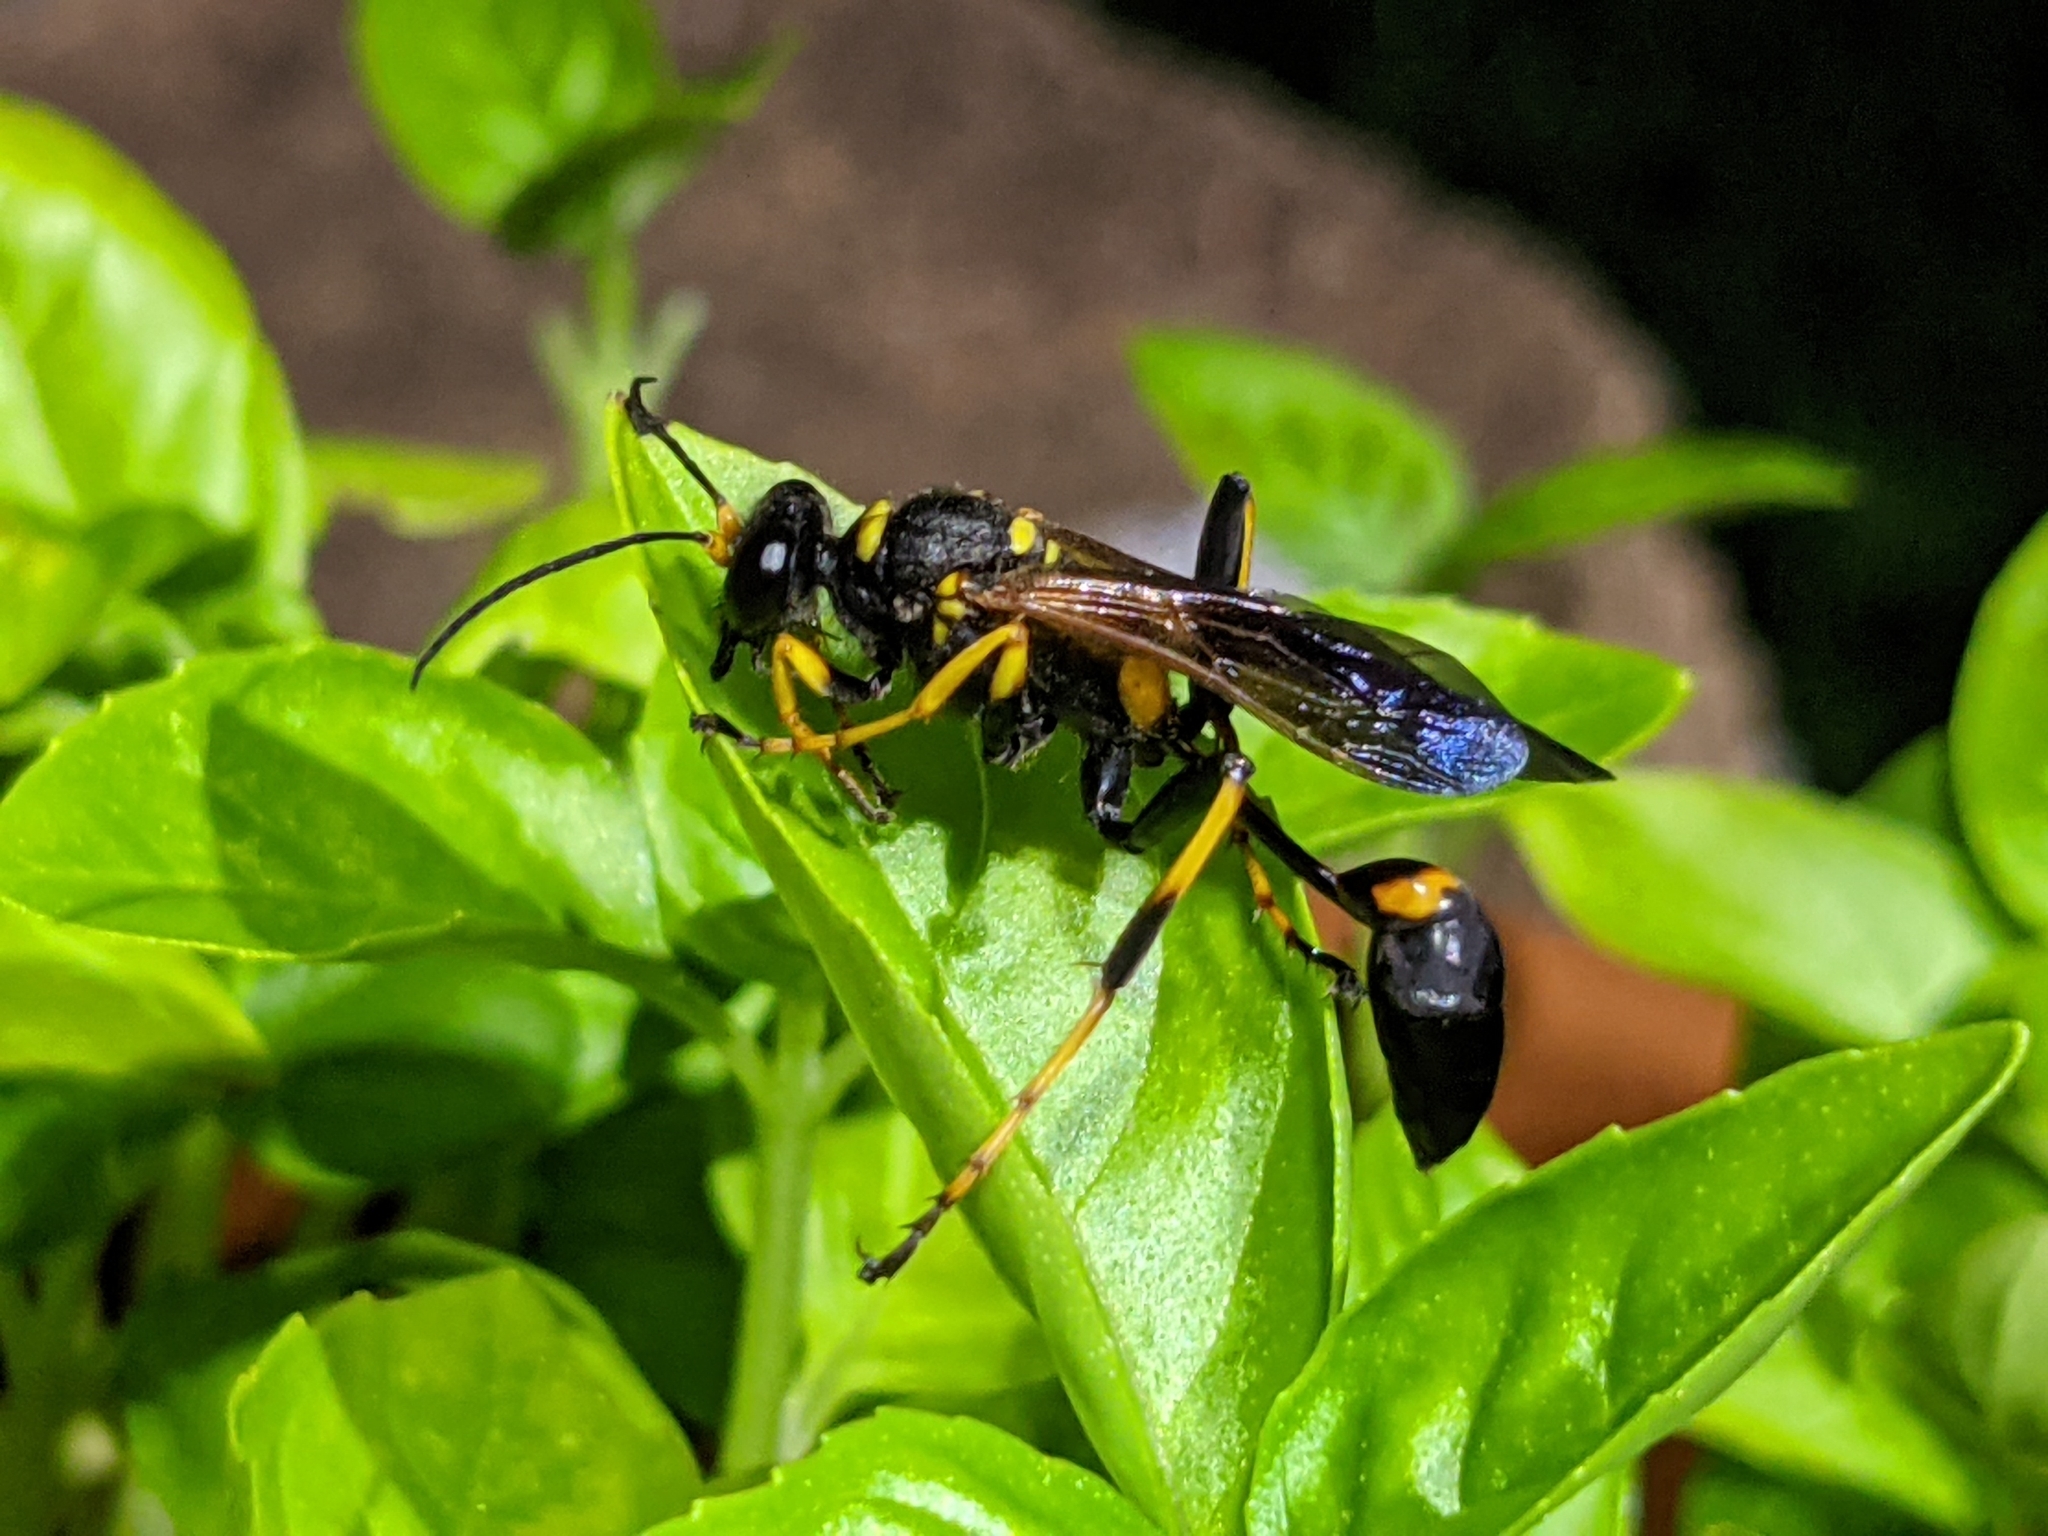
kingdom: Animalia
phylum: Arthropoda
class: Insecta
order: Hymenoptera
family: Sphecidae
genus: Sceliphron
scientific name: Sceliphron caementarium
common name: Mud dauber
